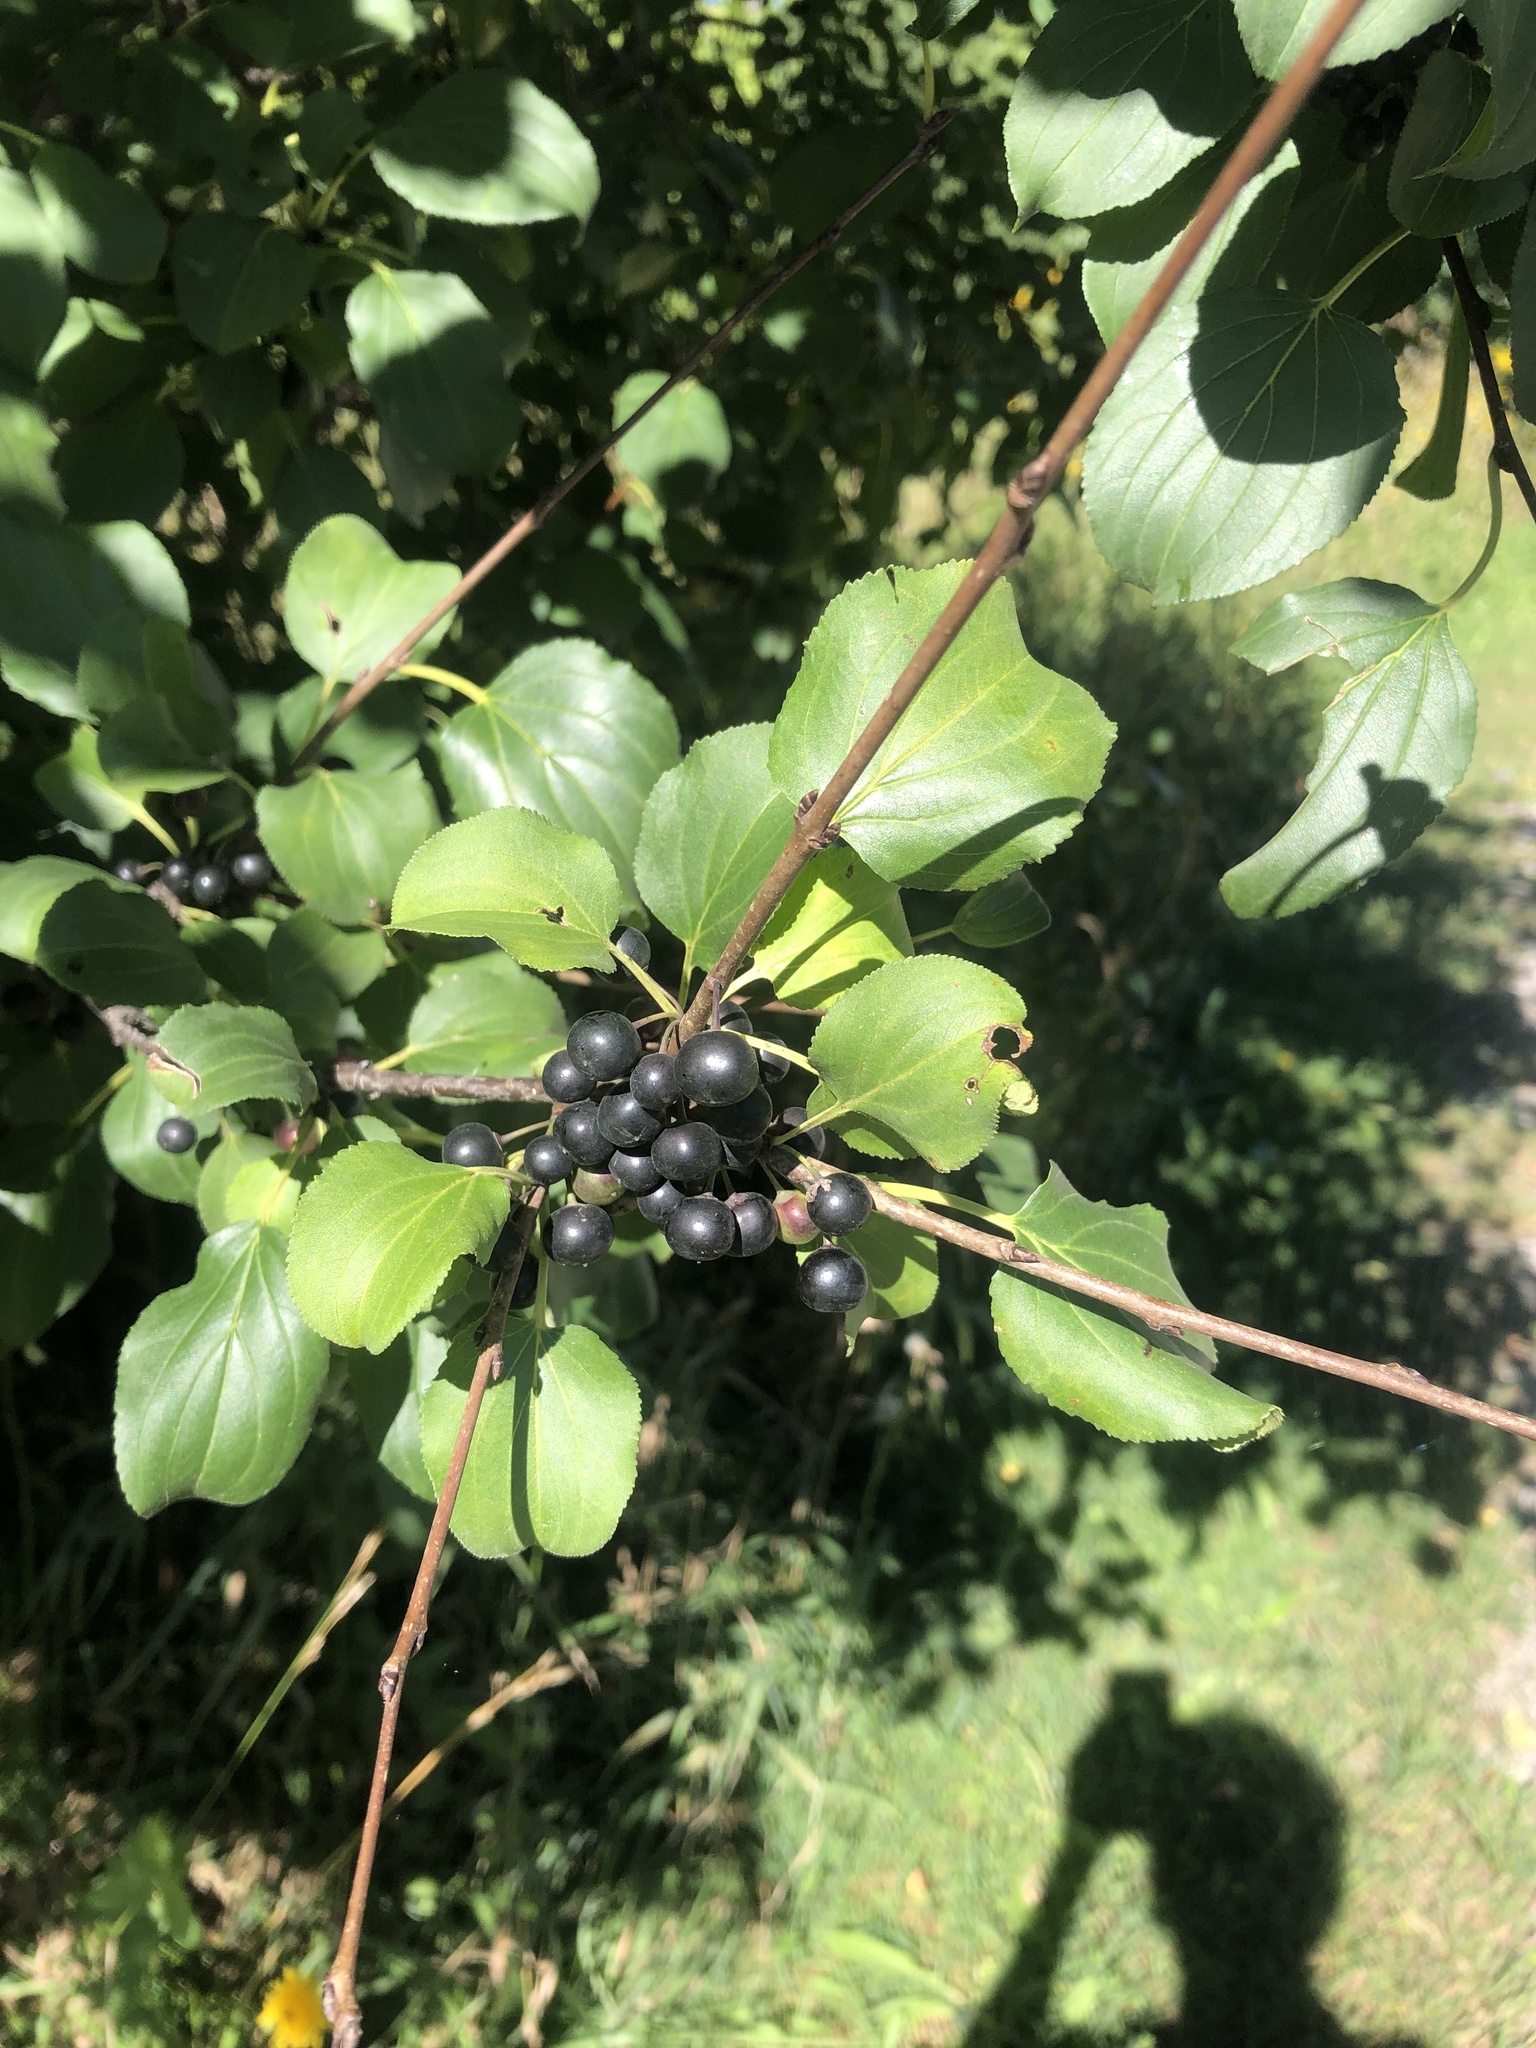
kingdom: Plantae
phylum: Tracheophyta
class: Magnoliopsida
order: Rosales
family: Rhamnaceae
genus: Rhamnus
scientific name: Rhamnus cathartica
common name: Common buckthorn
